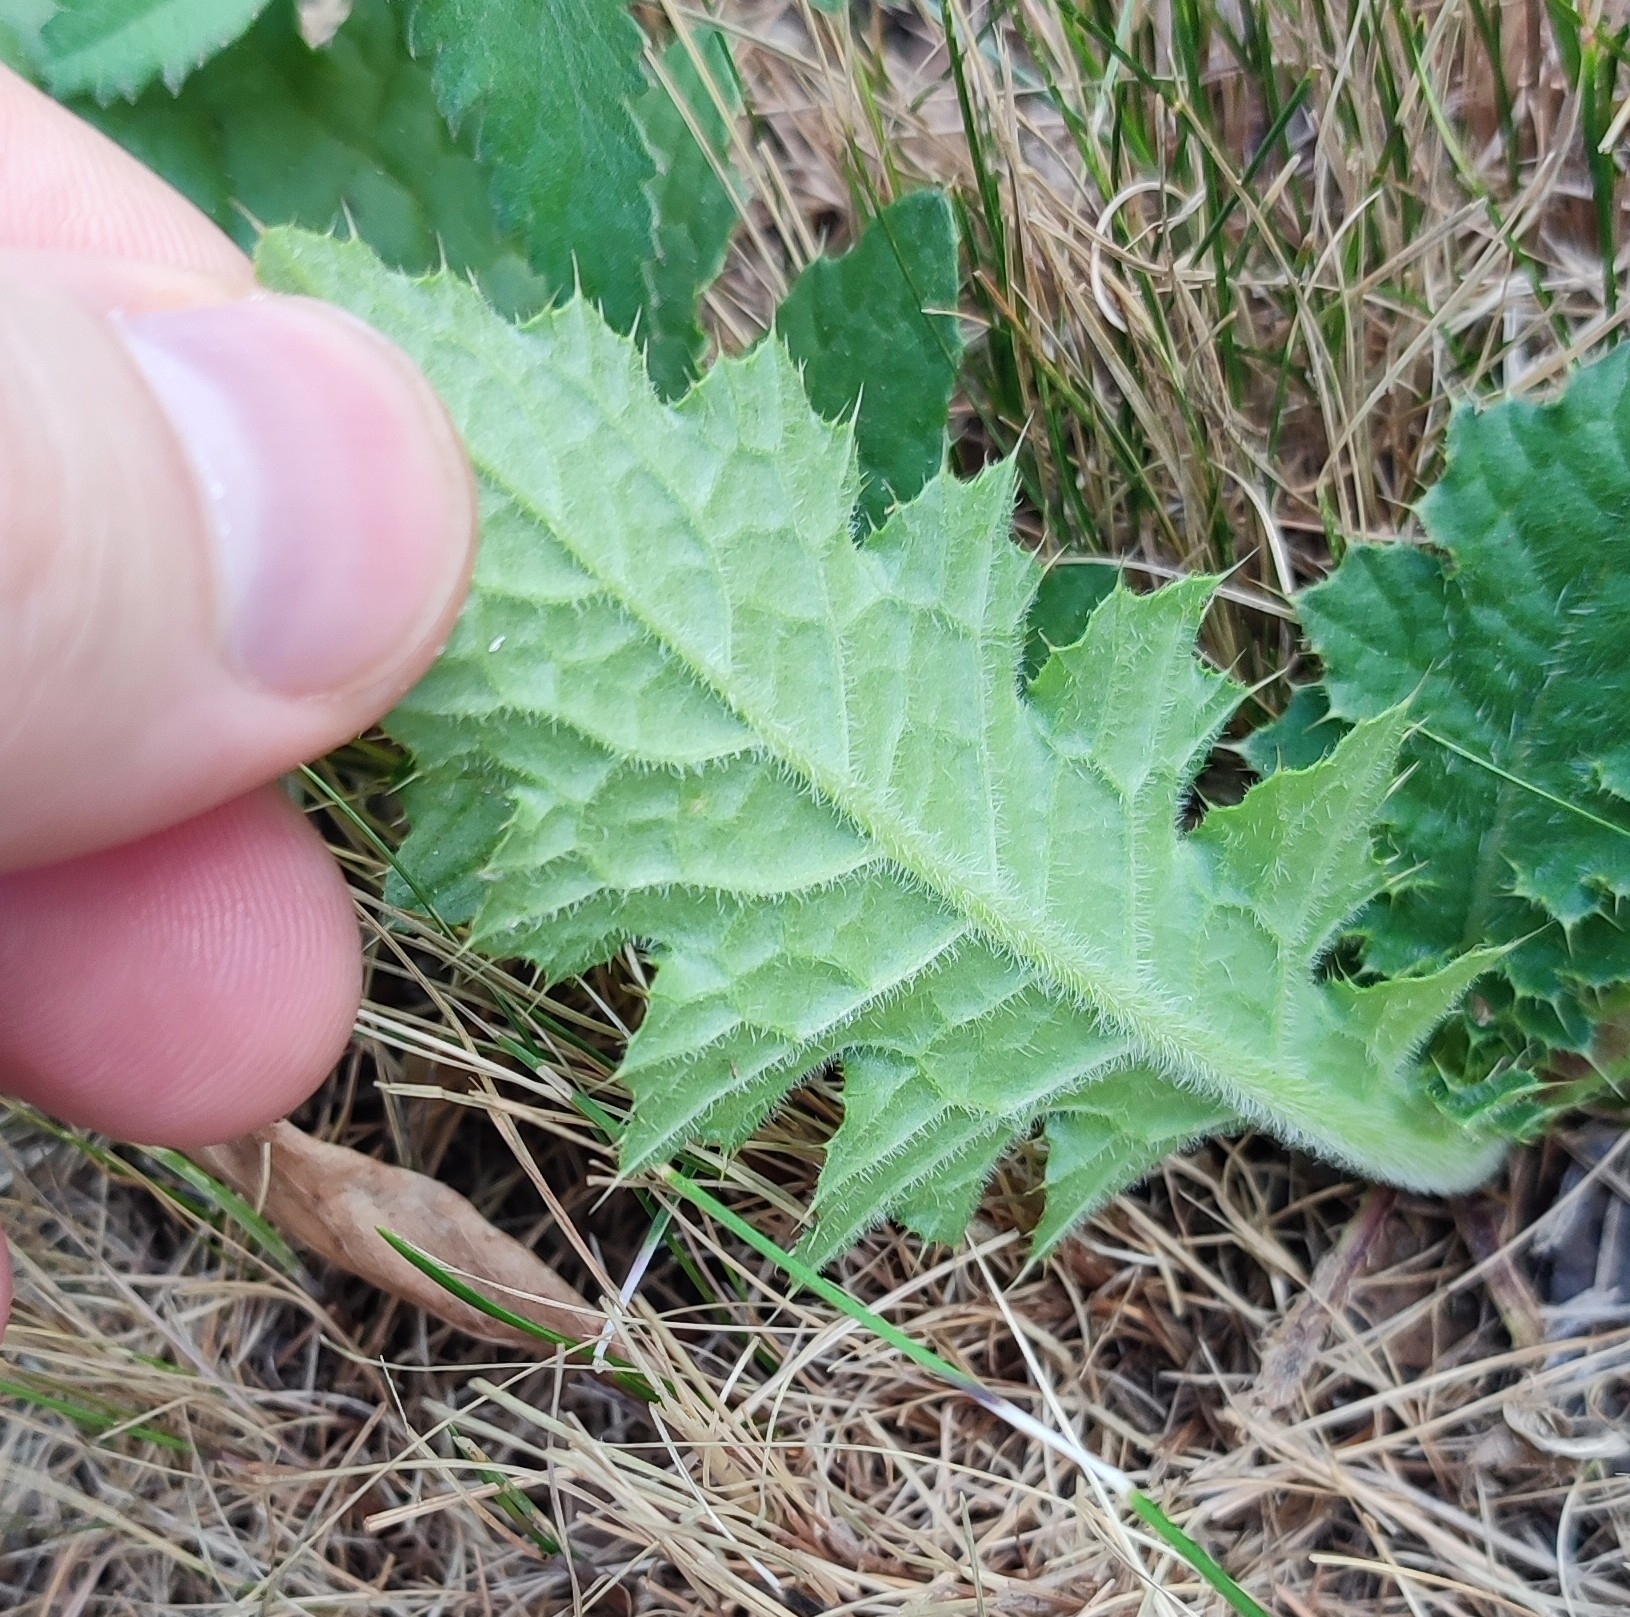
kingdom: Plantae
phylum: Tracheophyta
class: Magnoliopsida
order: Asterales
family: Asteraceae
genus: Carduus
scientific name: Carduus crispus
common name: Welted thistle
